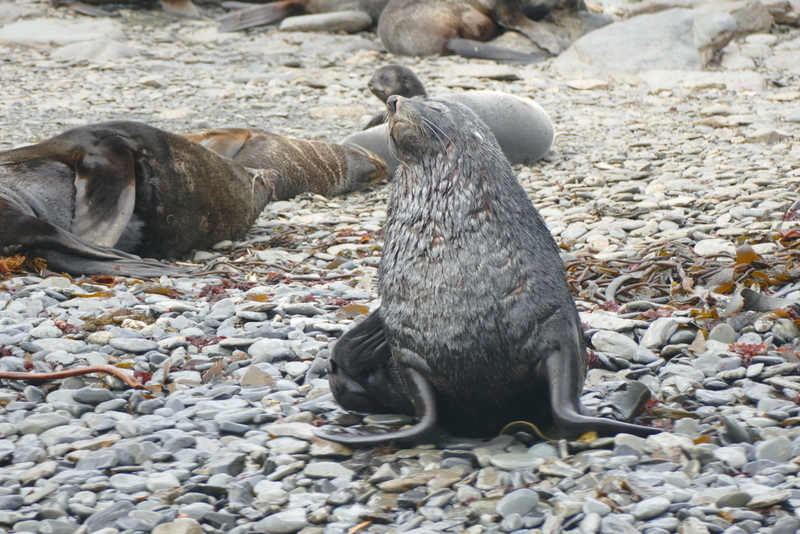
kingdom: Animalia
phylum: Chordata
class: Mammalia
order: Carnivora
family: Otariidae
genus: Arctocephalus
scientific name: Arctocephalus gazella
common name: Antarctic fur seal
